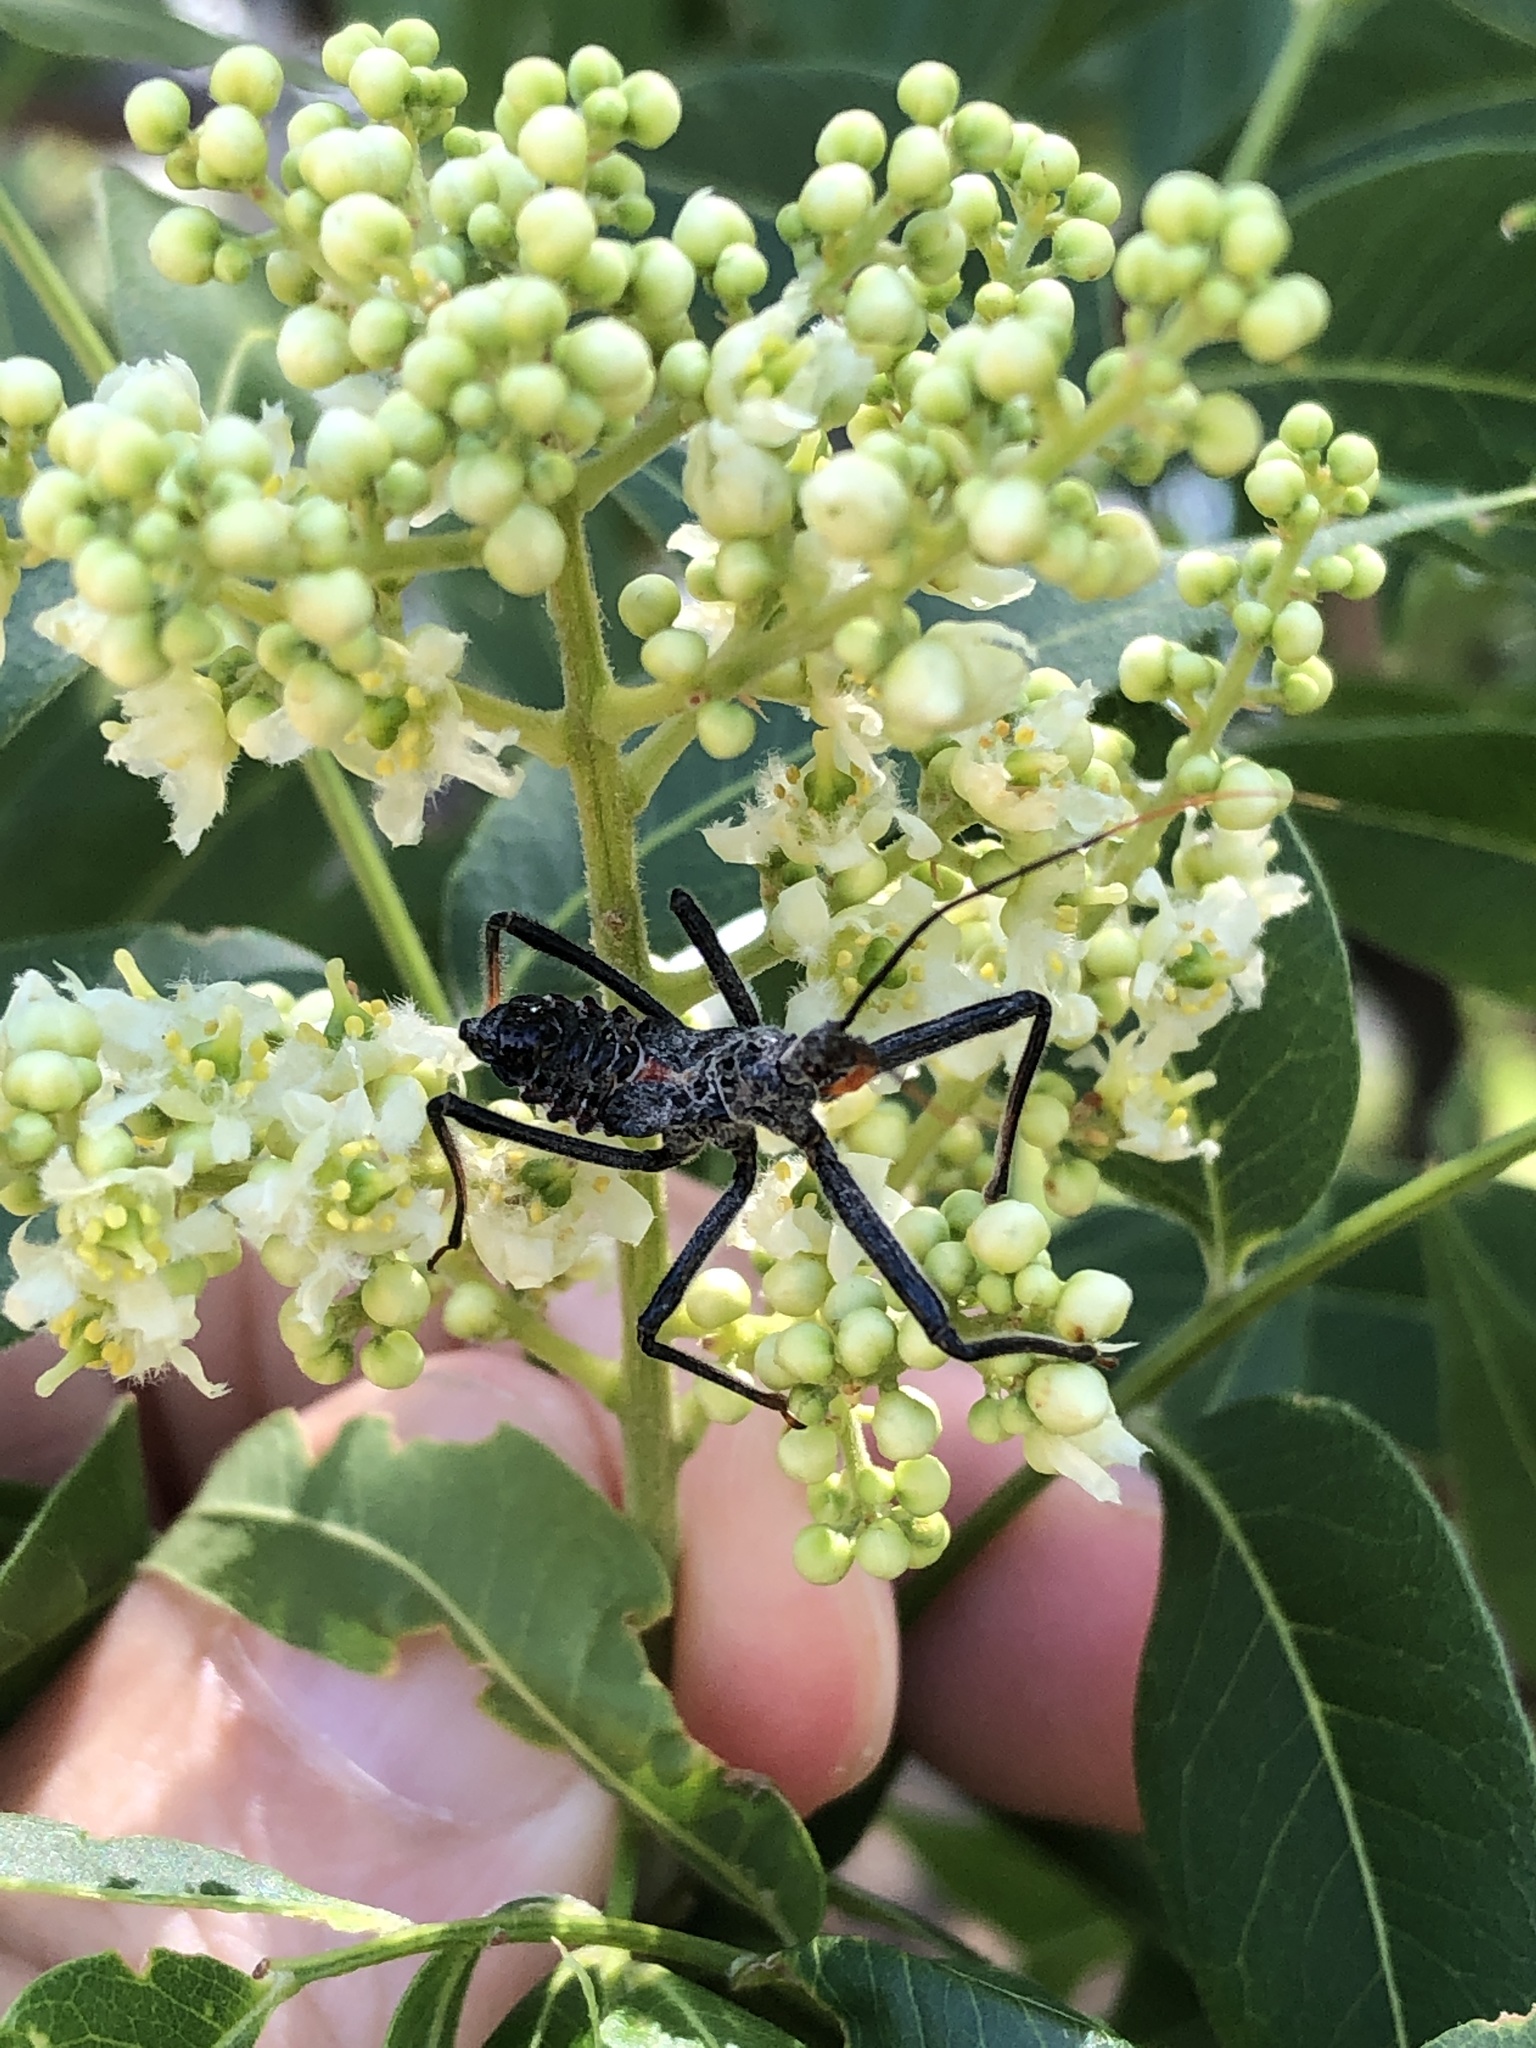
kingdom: Animalia
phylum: Arthropoda
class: Insecta
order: Hemiptera
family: Reduviidae
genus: Arilus
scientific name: Arilus cristatus
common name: North american wheel bug
